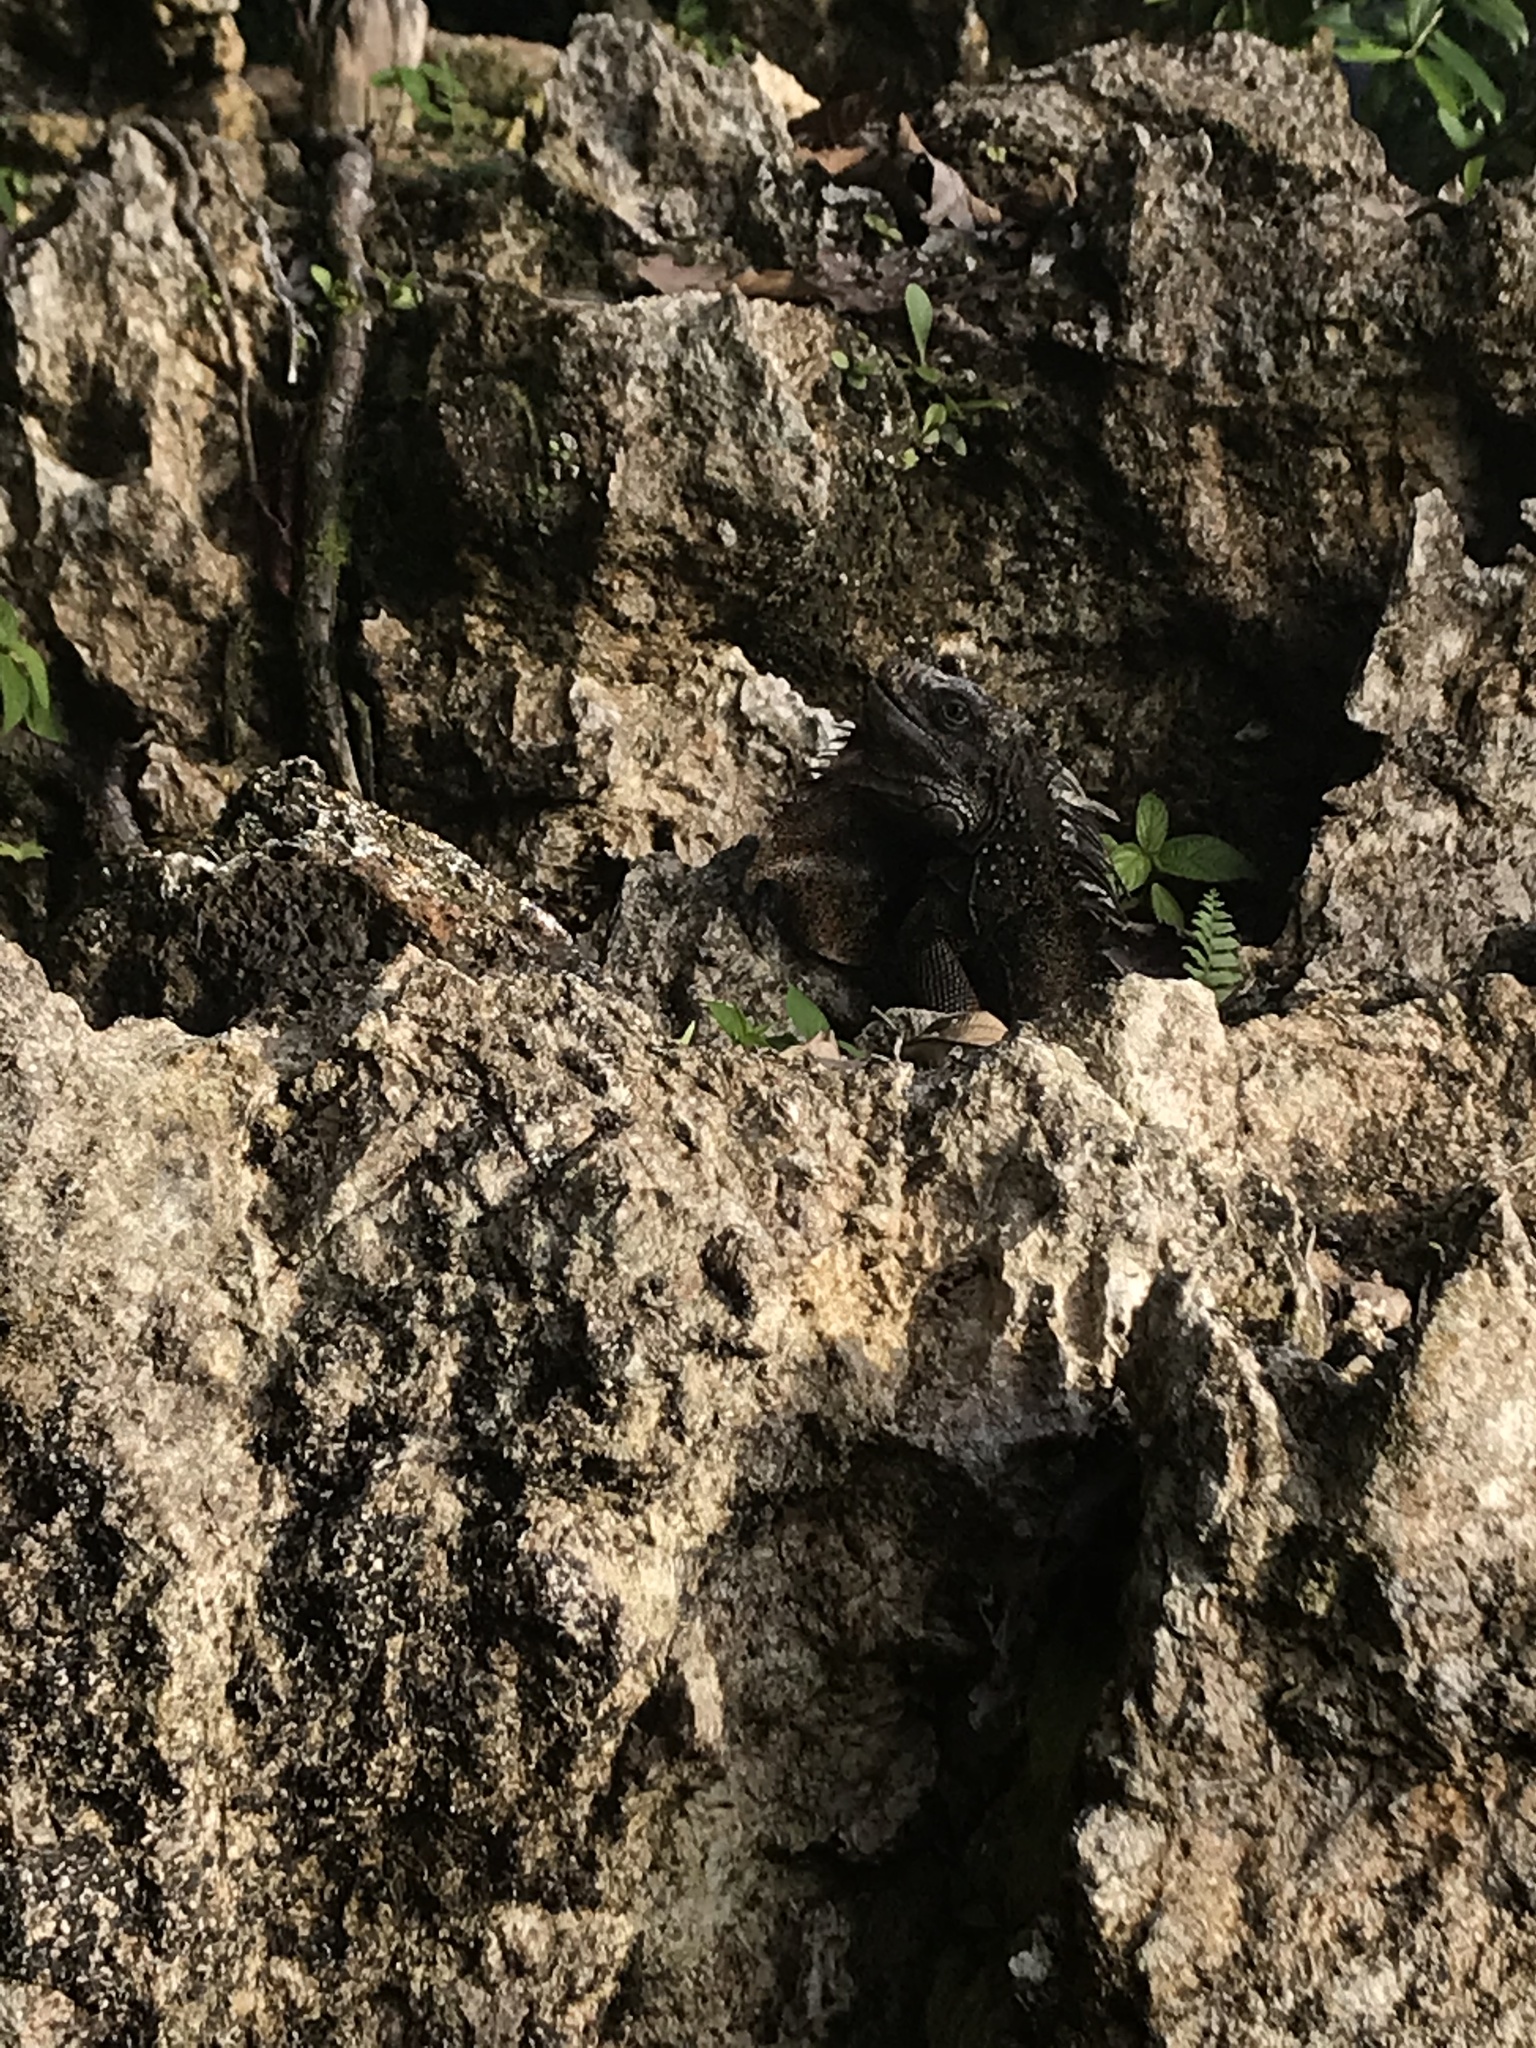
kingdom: Animalia
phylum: Chordata
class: Squamata
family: Iguanidae
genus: Iguana
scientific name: Iguana iguana
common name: Green iguana
